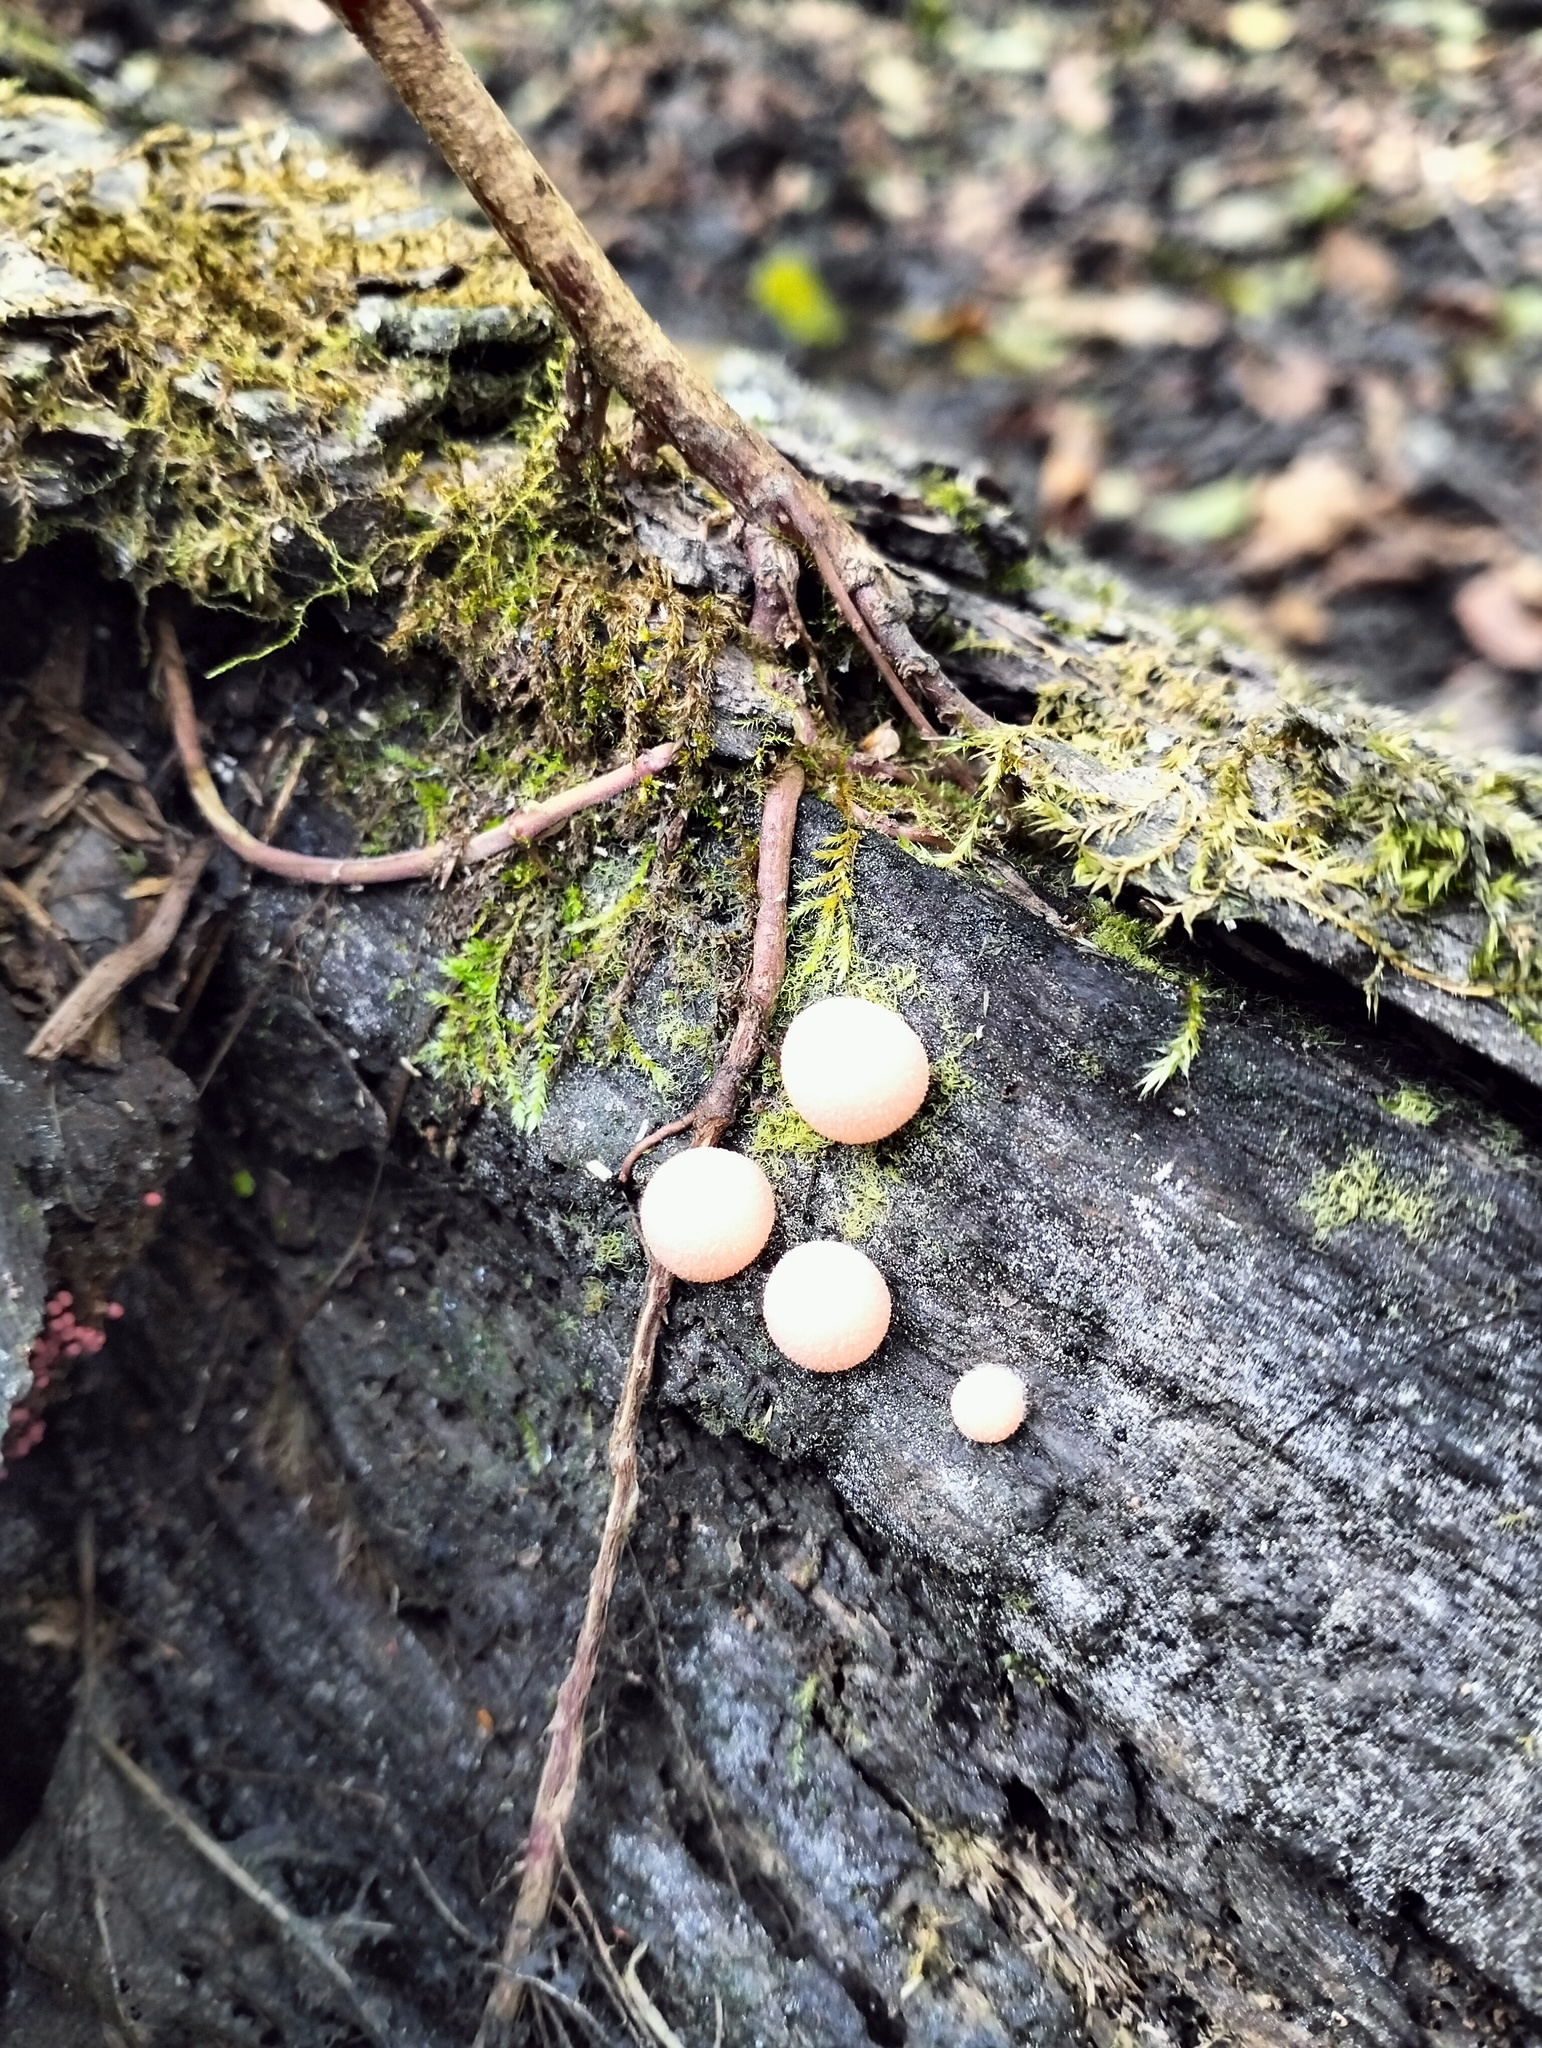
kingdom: Protozoa
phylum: Mycetozoa
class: Myxomycetes
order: Cribrariales
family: Tubiferaceae
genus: Lycogala
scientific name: Lycogala epidendrum
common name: Wolf's milk
